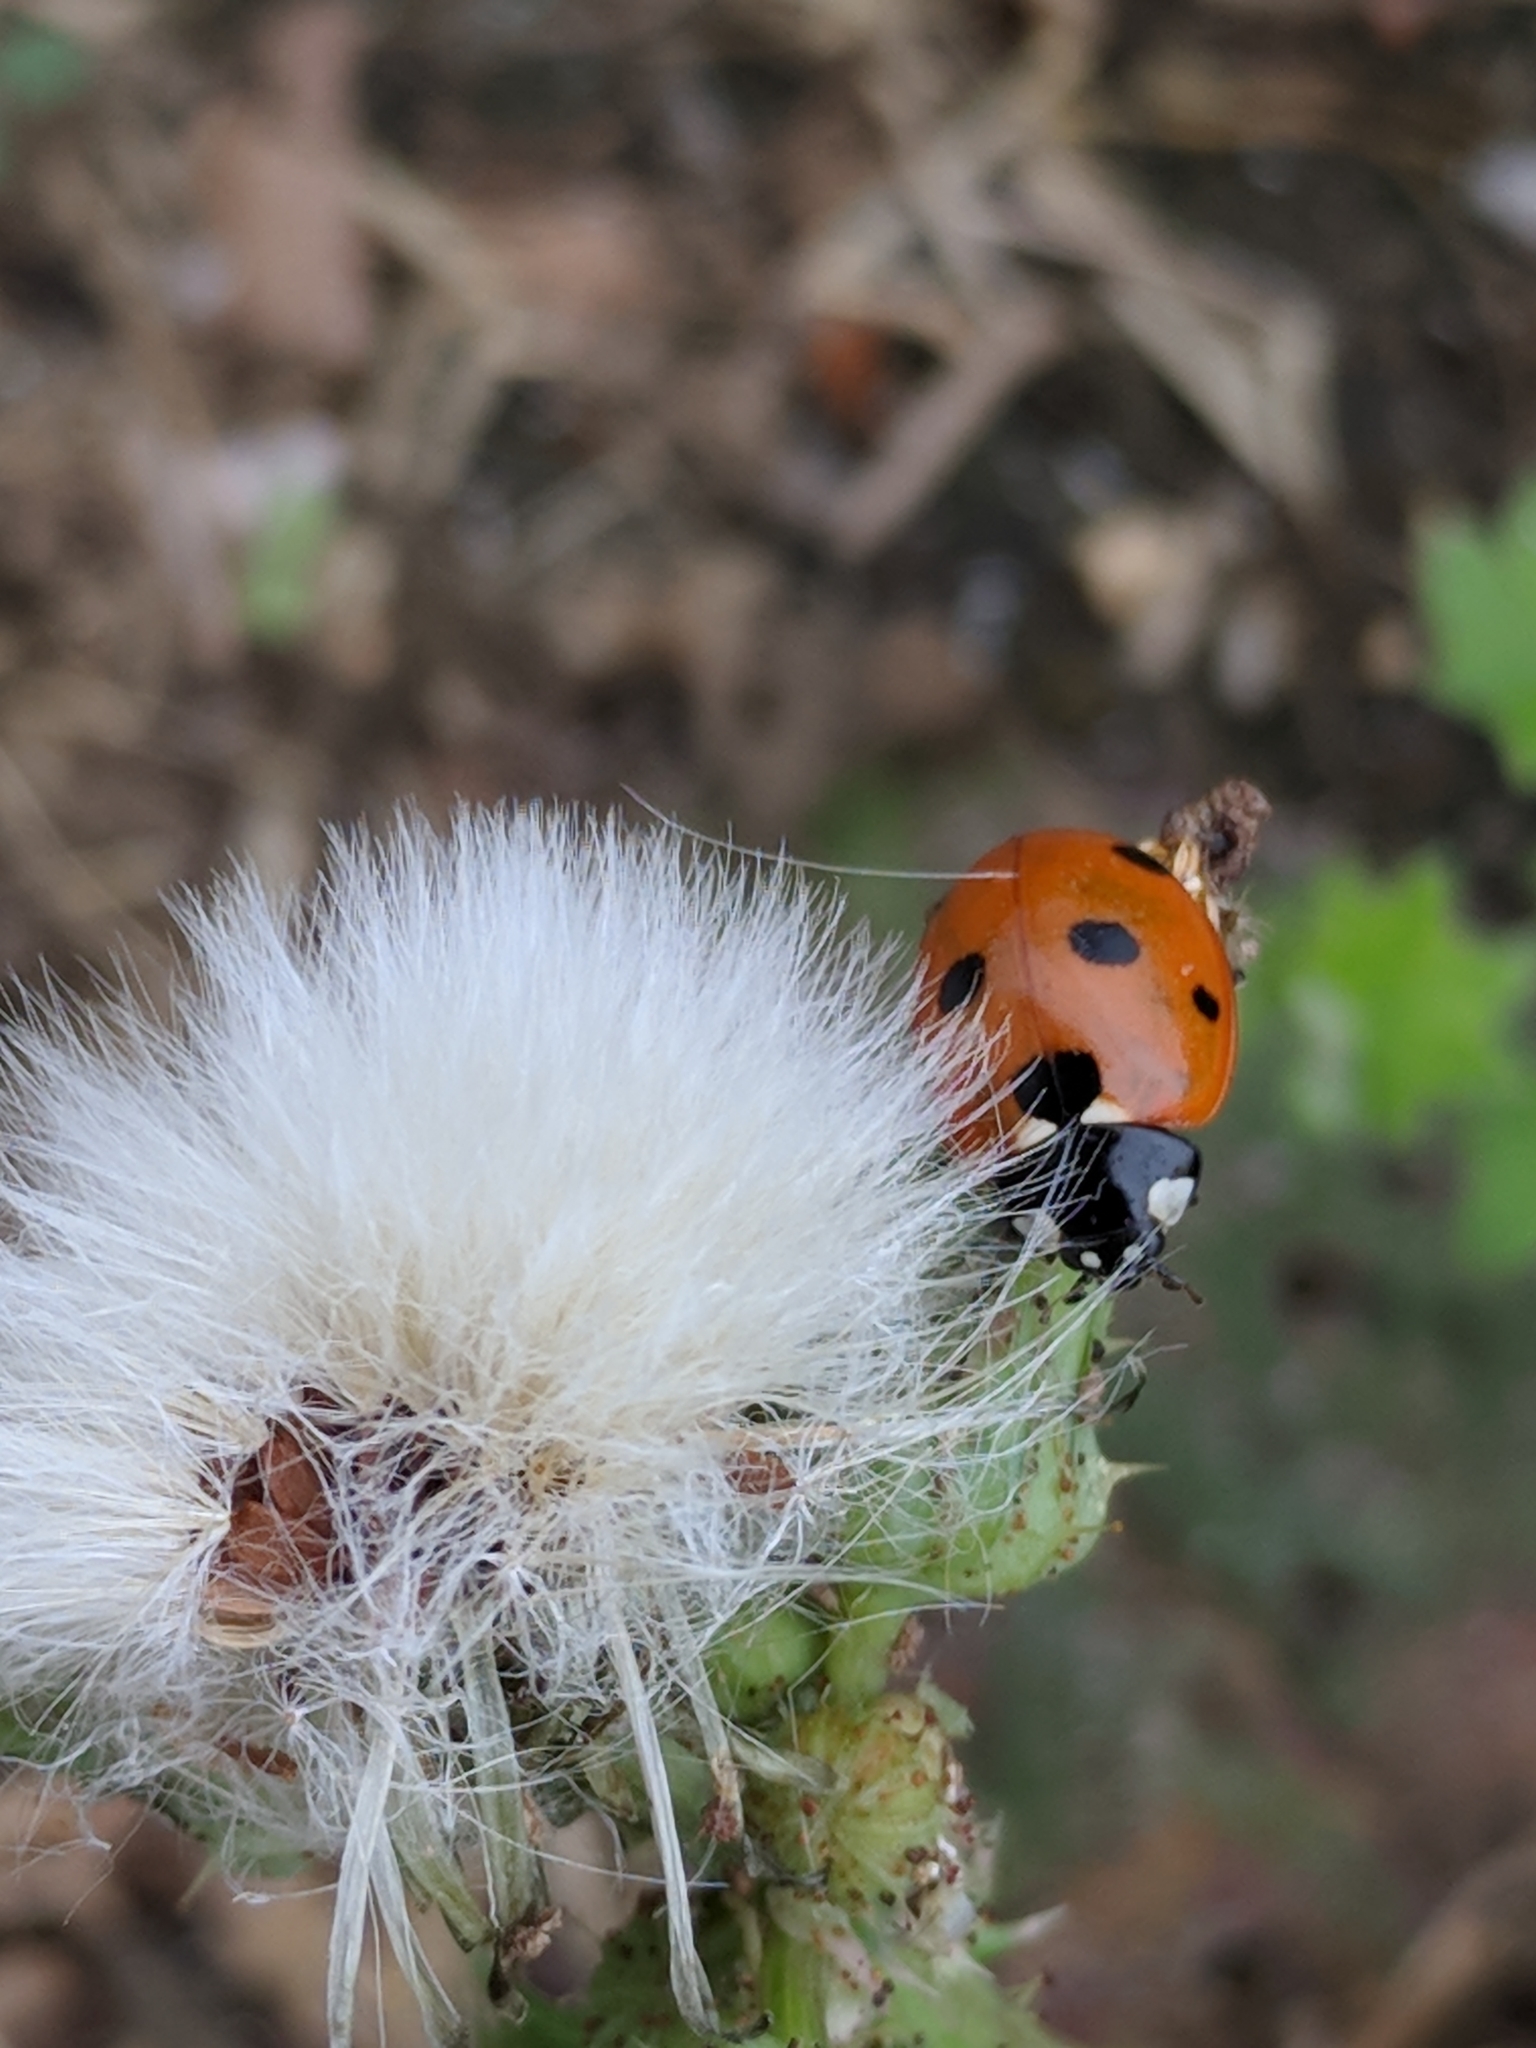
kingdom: Animalia
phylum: Arthropoda
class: Insecta
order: Coleoptera
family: Coccinellidae
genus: Coccinella
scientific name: Coccinella septempunctata
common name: Sevenspotted lady beetle
